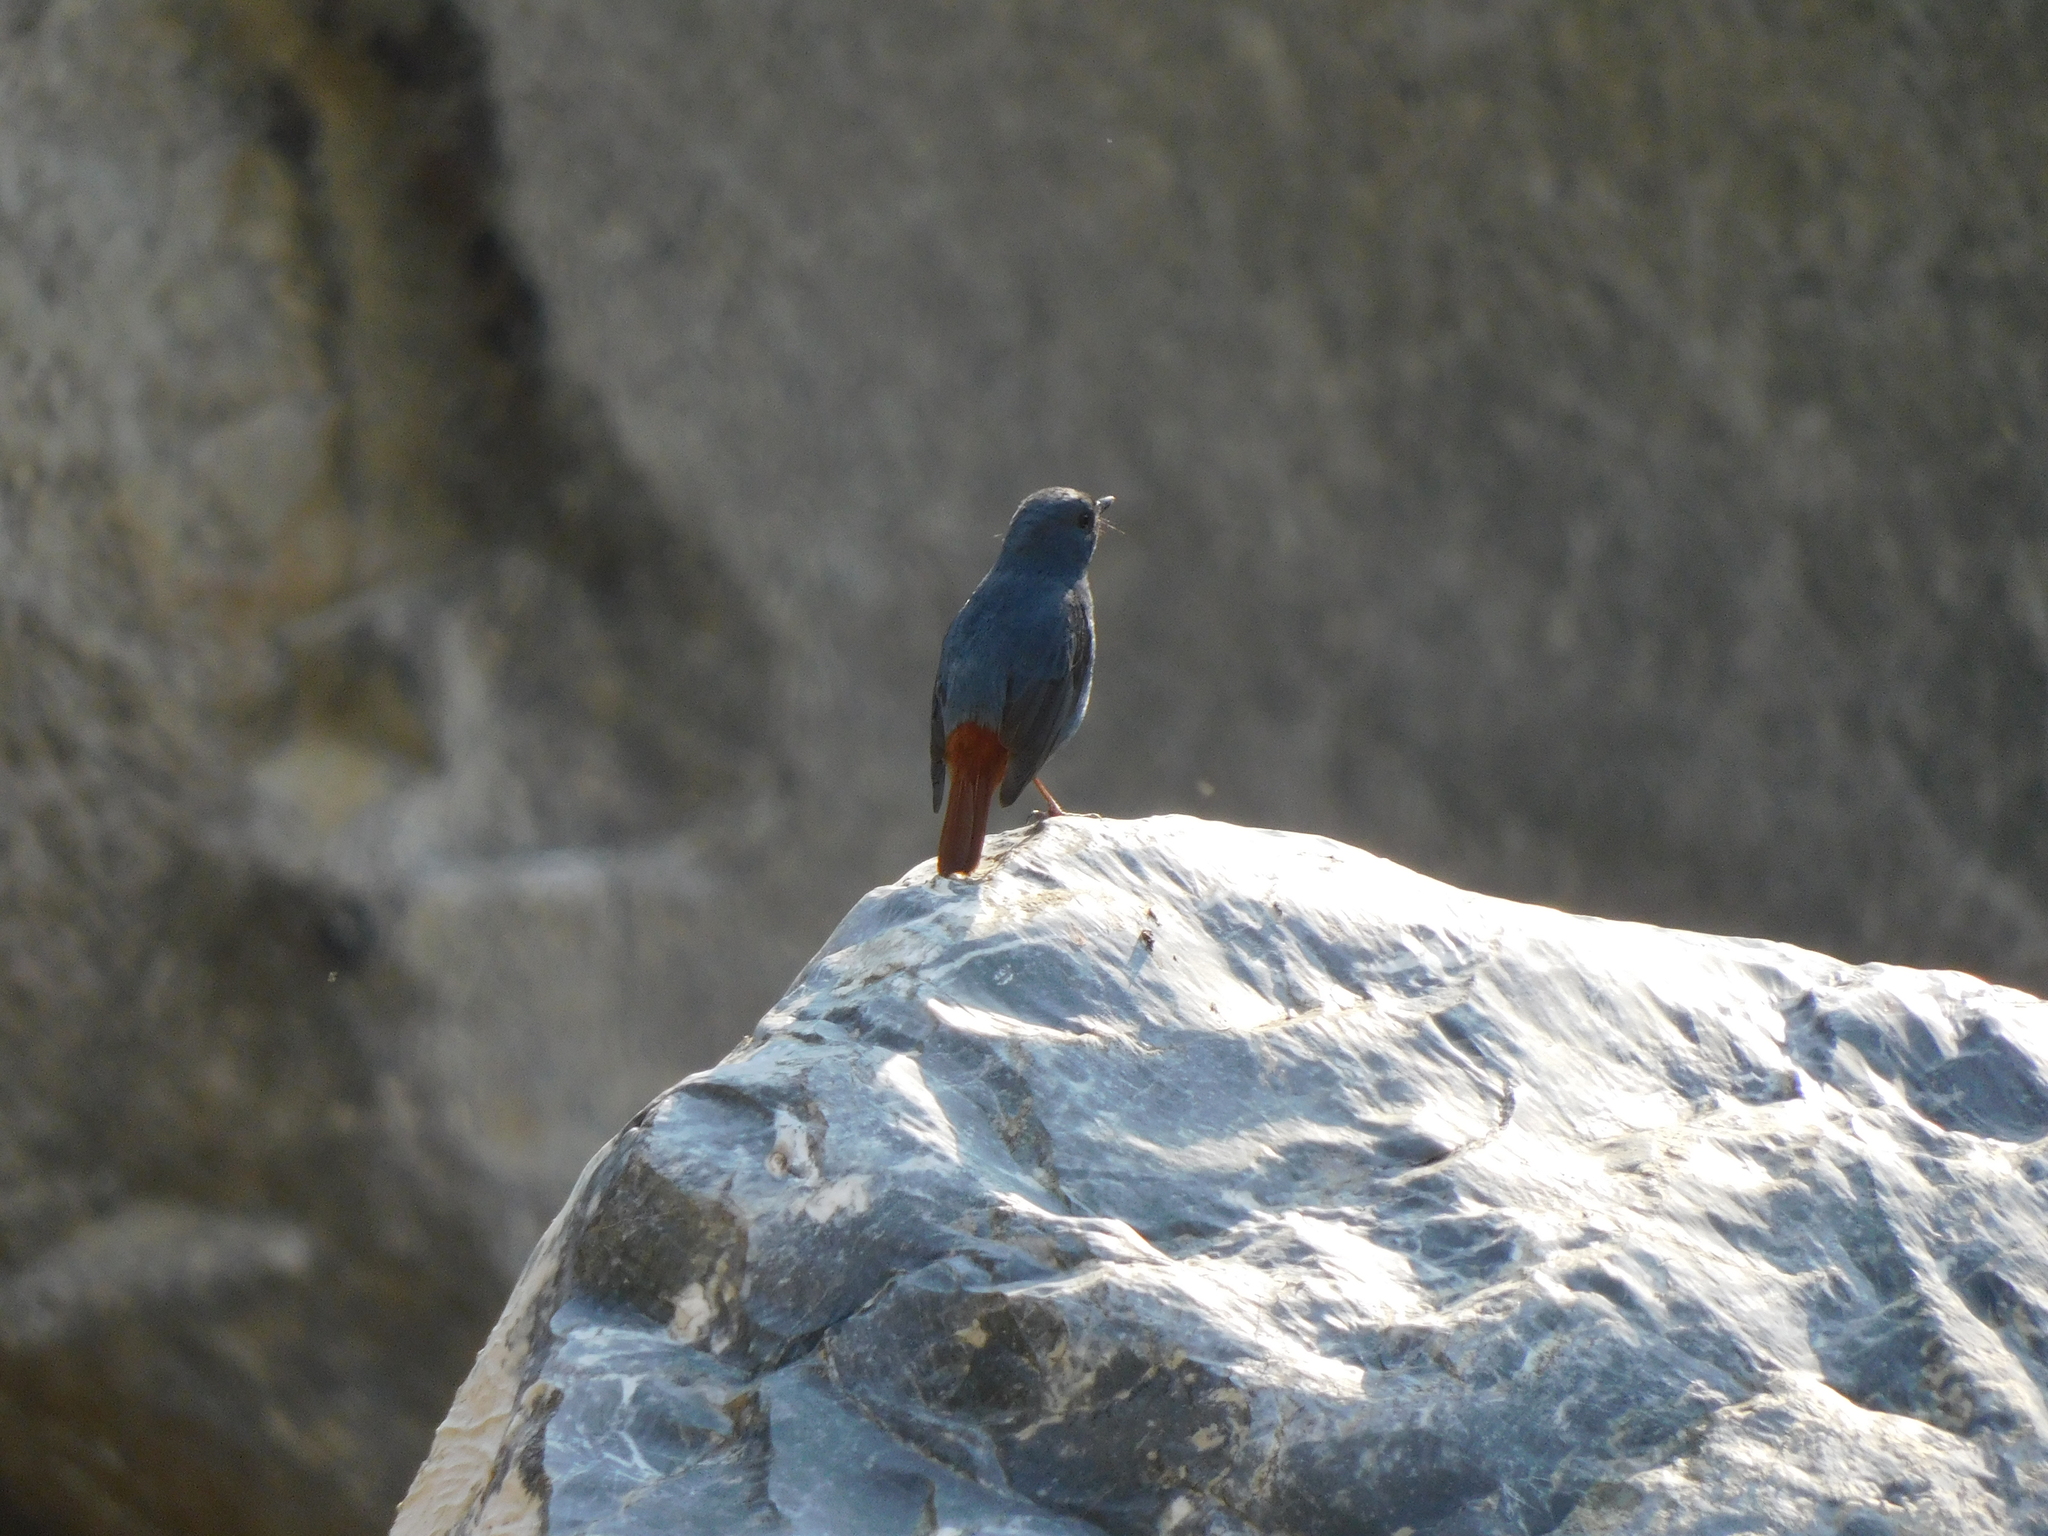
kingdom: Animalia
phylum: Chordata
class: Aves
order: Passeriformes
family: Muscicapidae
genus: Phoenicurus
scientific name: Phoenicurus fuliginosus
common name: Plumbeous water redstart
